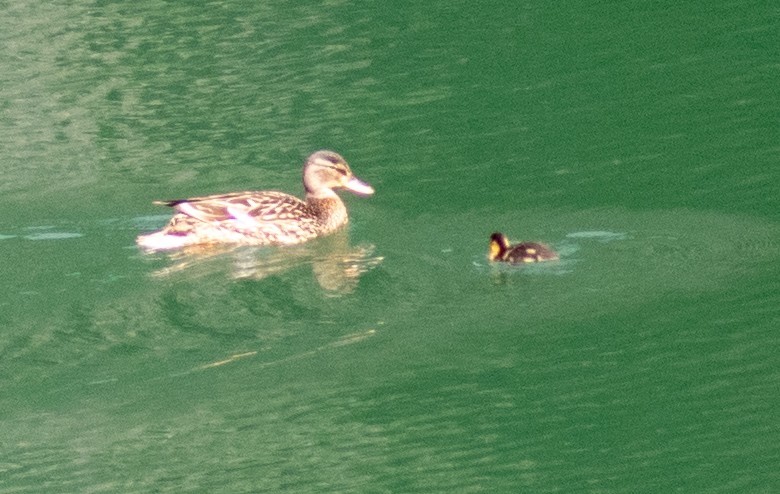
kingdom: Animalia
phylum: Chordata
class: Aves
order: Anseriformes
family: Anatidae
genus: Anas
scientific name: Anas platyrhynchos
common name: Mallard
